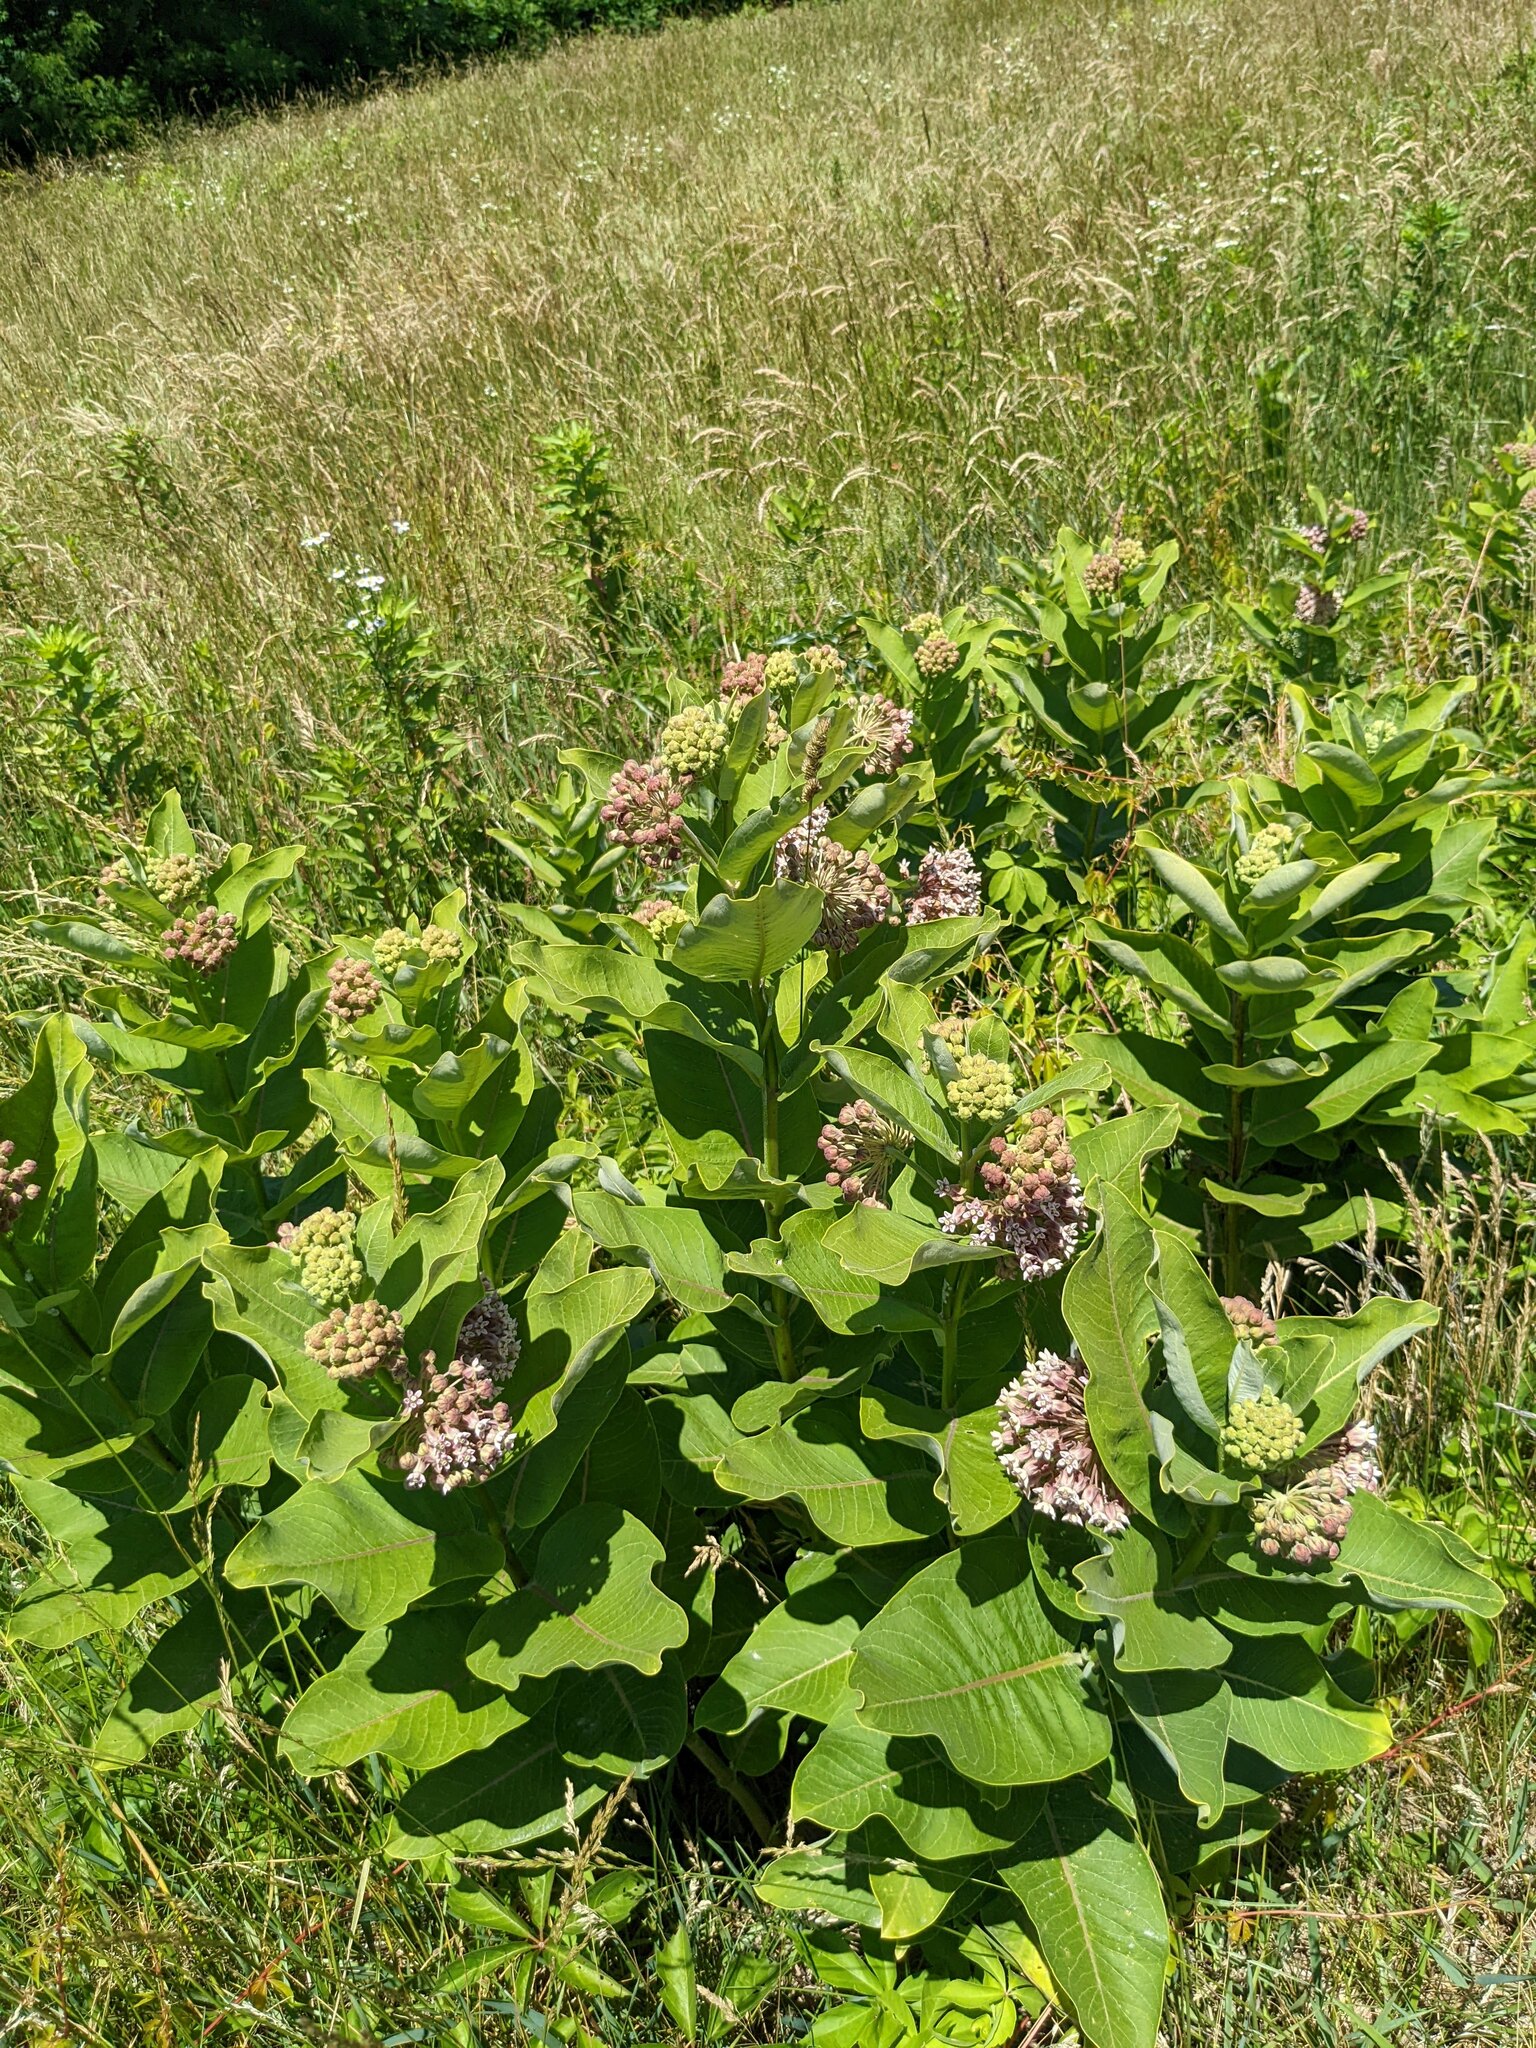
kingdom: Plantae
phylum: Tracheophyta
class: Magnoliopsida
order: Gentianales
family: Apocynaceae
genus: Asclepias
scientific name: Asclepias syriaca
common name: Common milkweed
